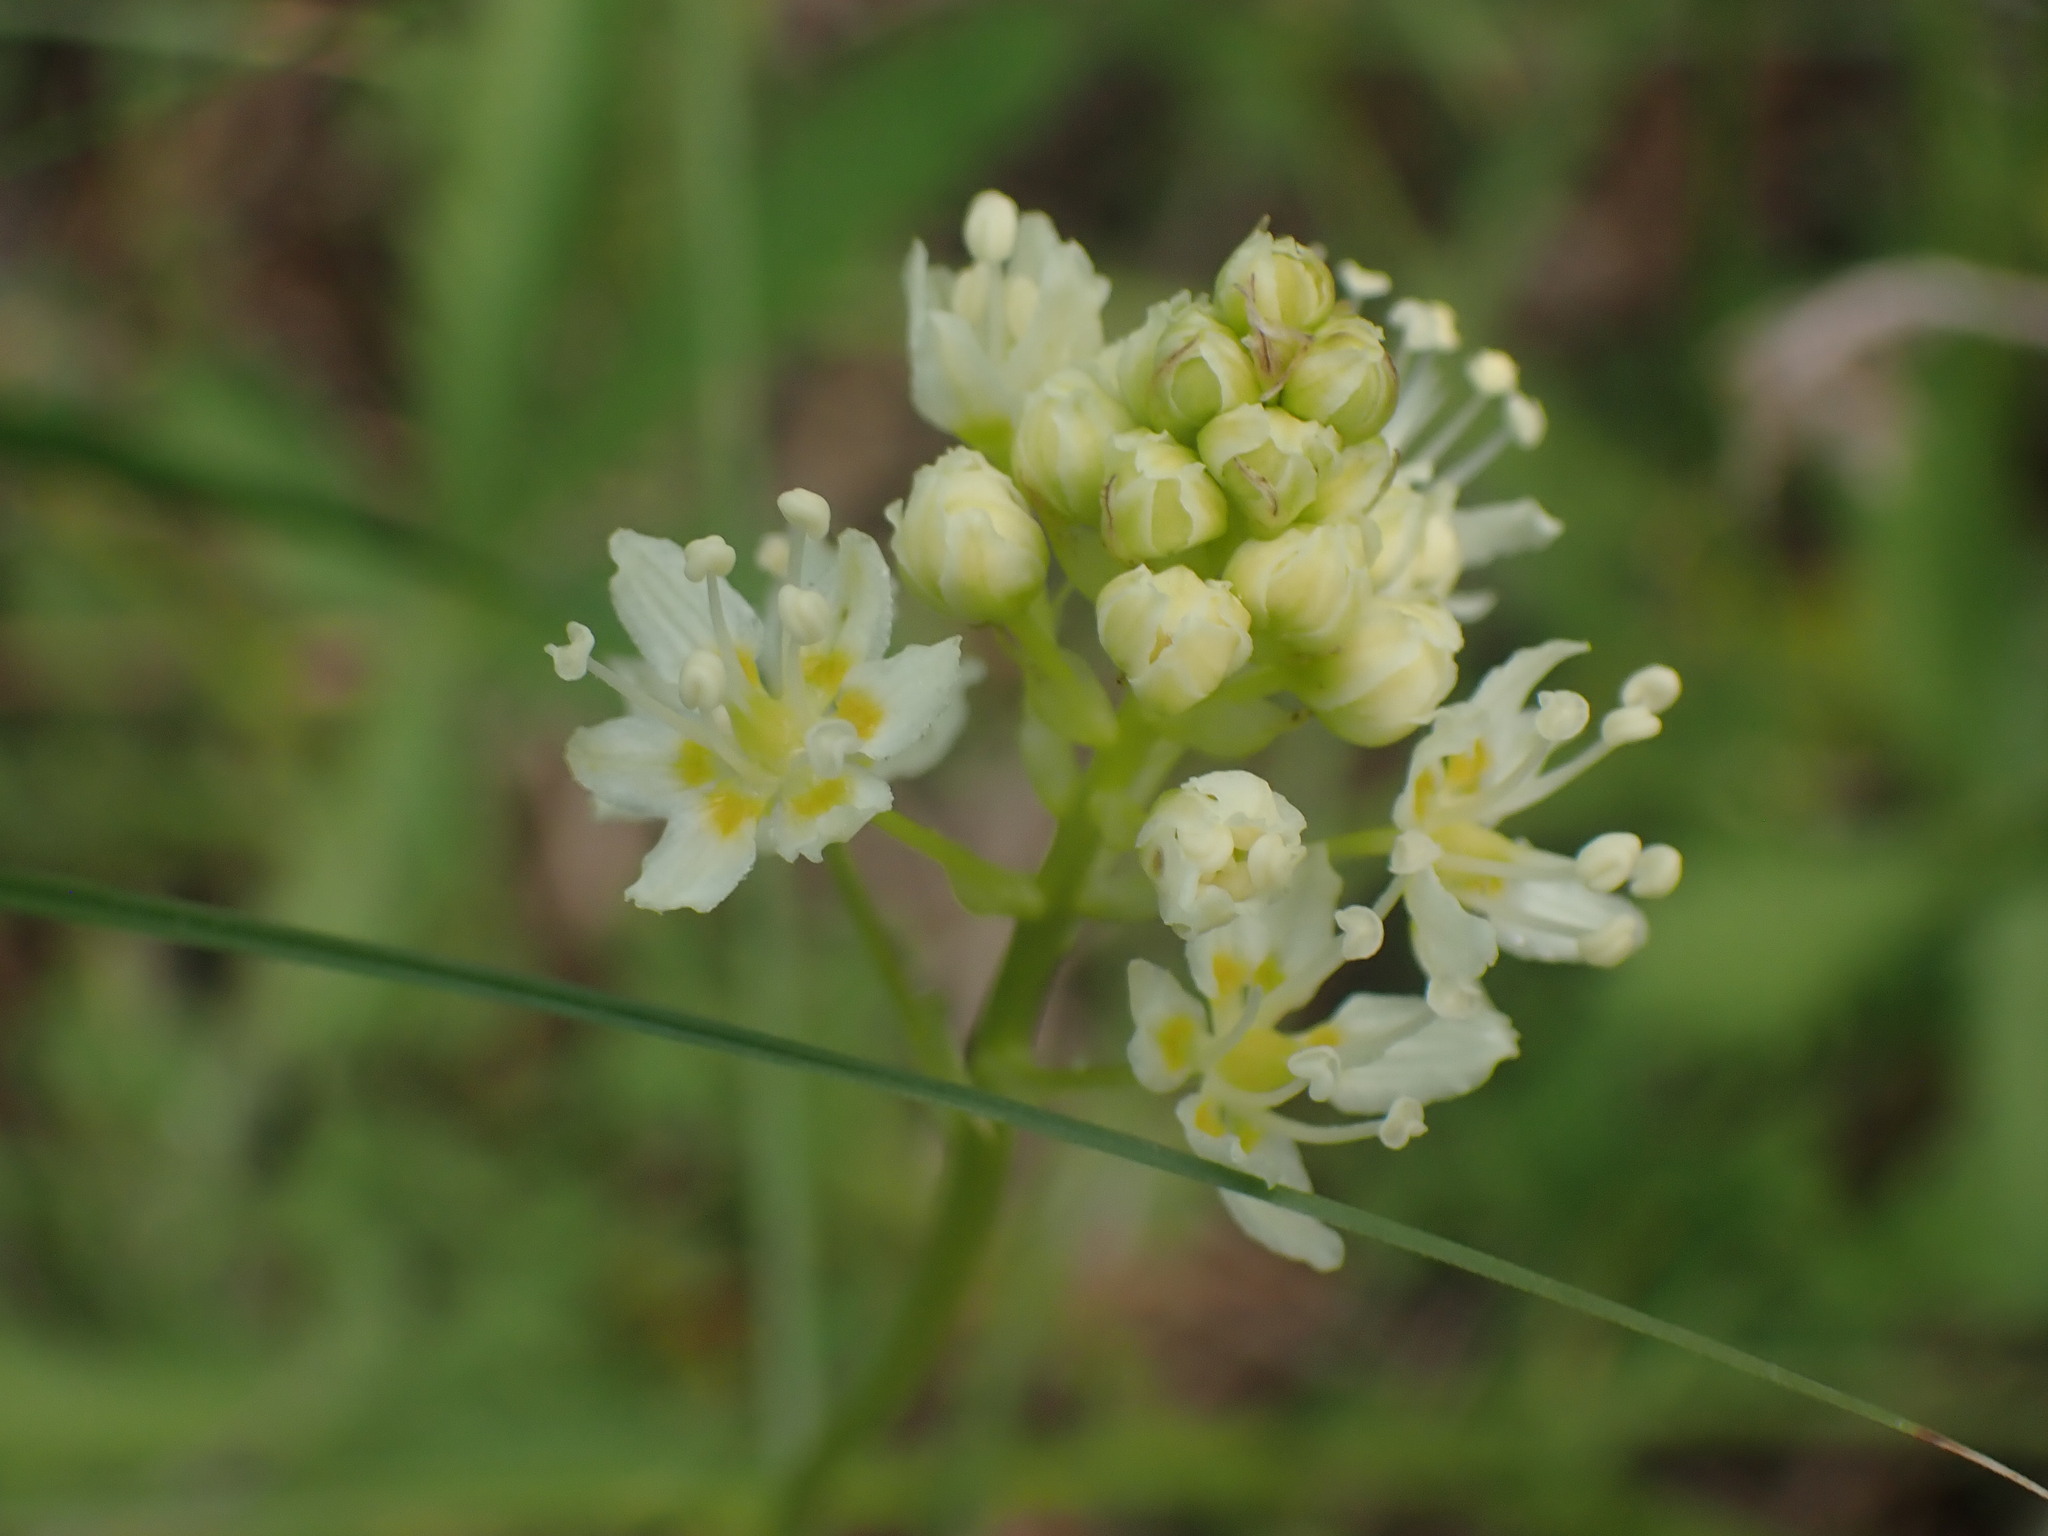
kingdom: Plantae
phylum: Tracheophyta
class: Liliopsida
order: Liliales
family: Melanthiaceae
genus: Toxicoscordion
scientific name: Toxicoscordion venenosum
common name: Meadow death camas
